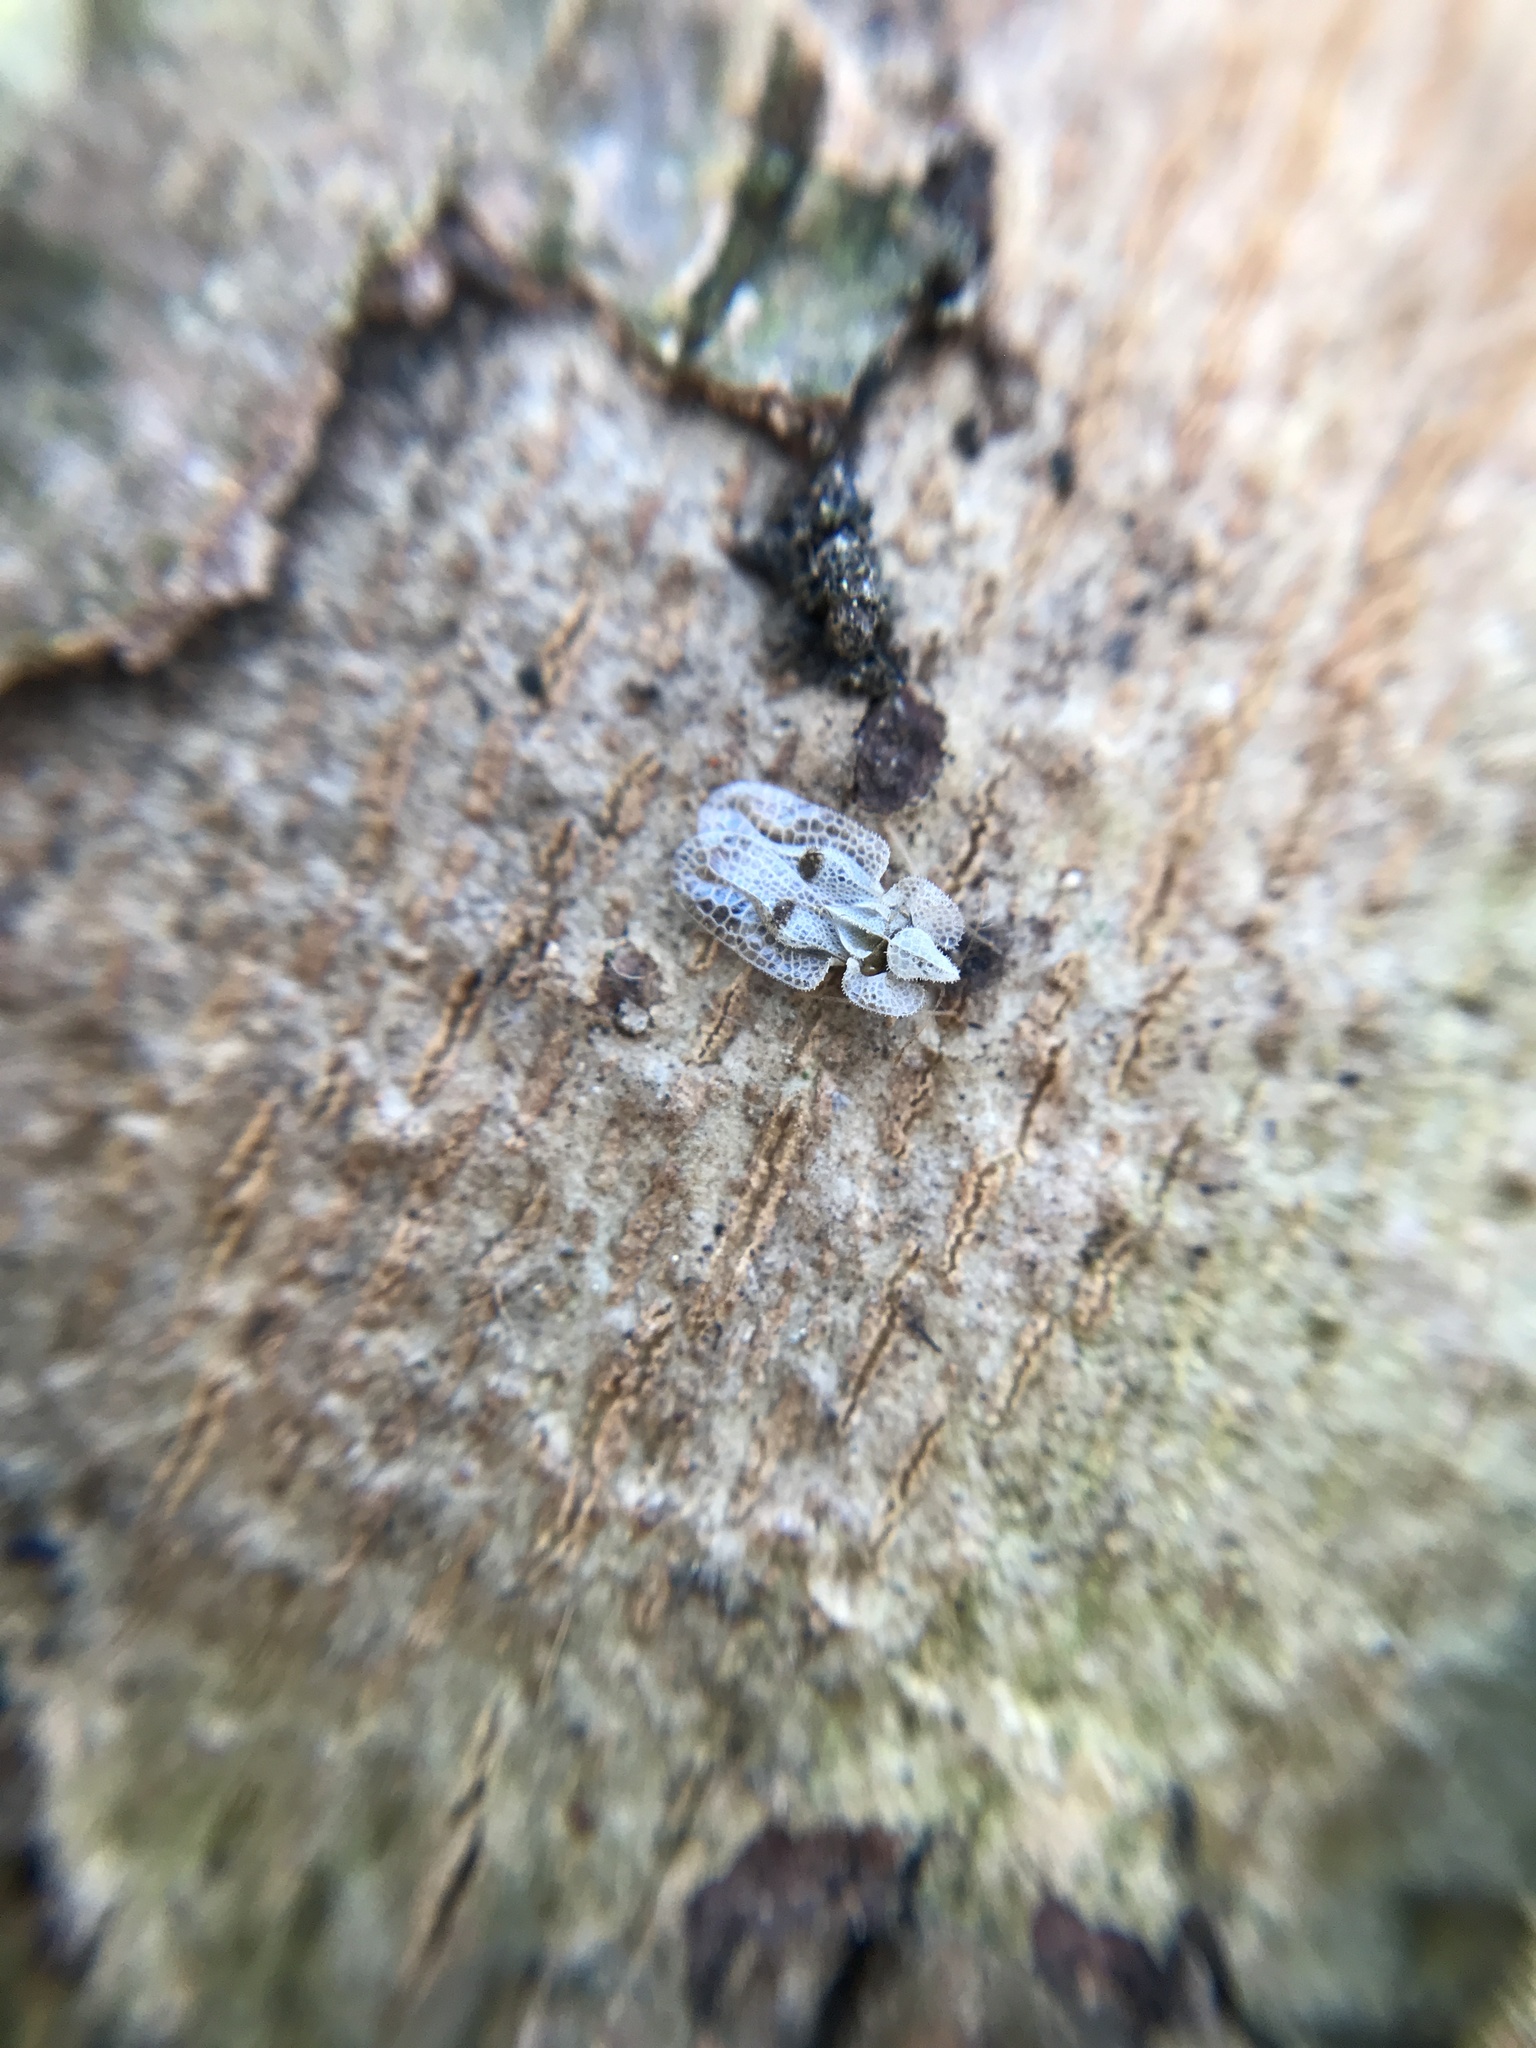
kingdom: Animalia
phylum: Arthropoda
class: Insecta
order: Hemiptera
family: Tingidae
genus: Corythucha
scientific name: Corythucha ciliata
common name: Sycamore lace bug
